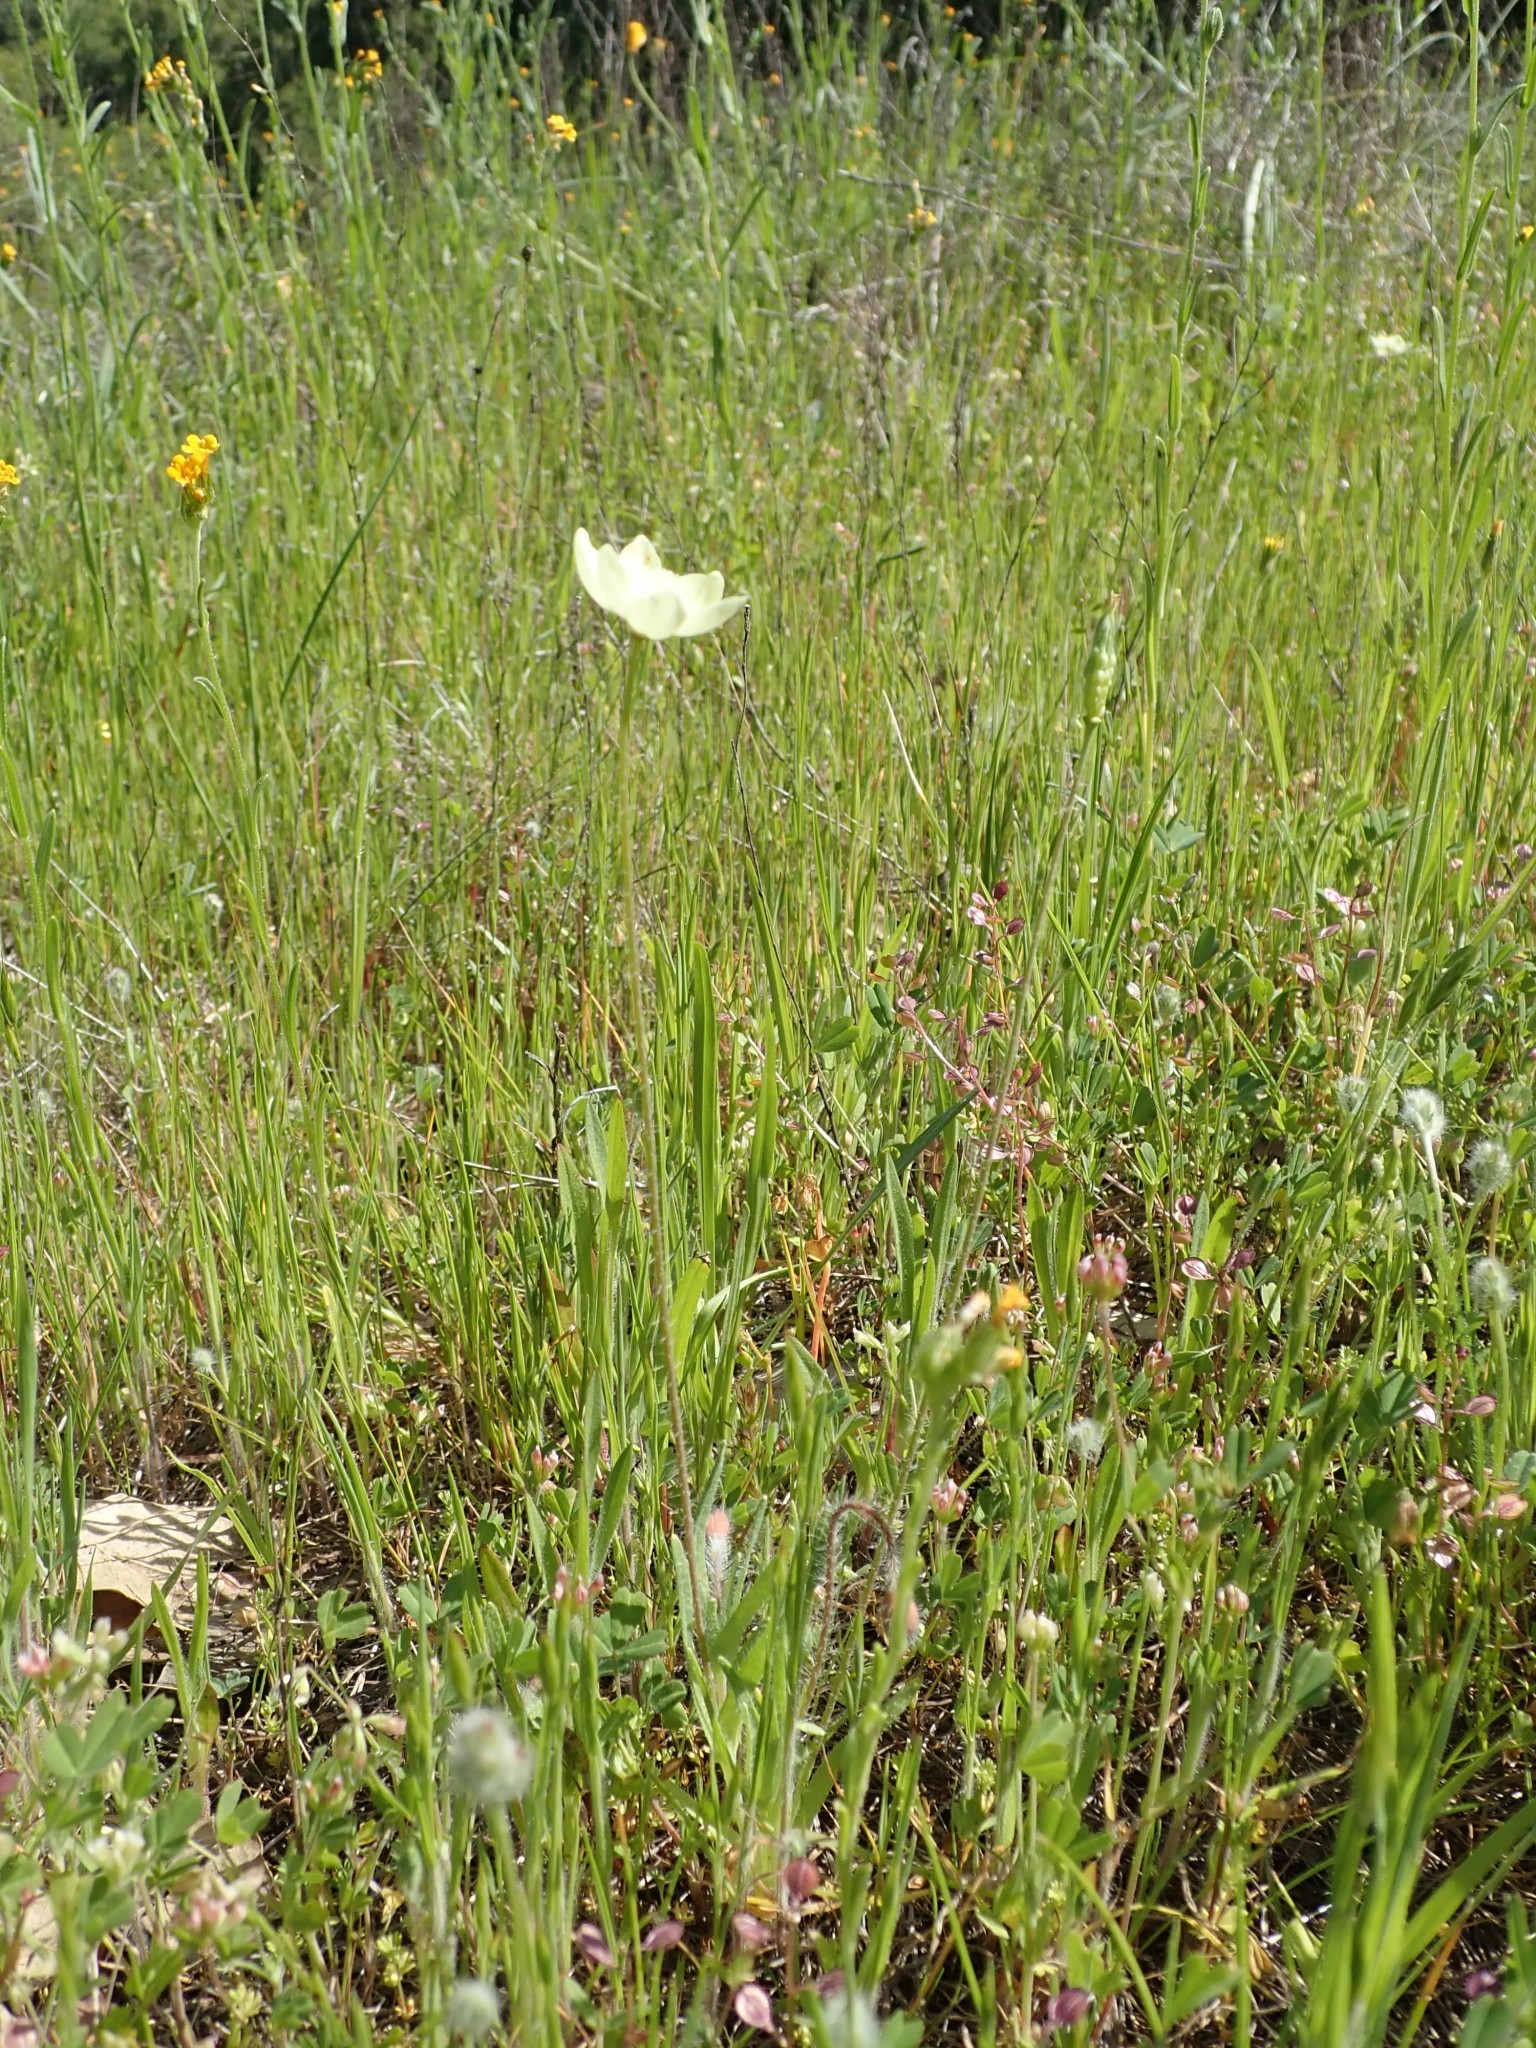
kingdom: Plantae
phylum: Tracheophyta
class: Magnoliopsida
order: Ranunculales
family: Papaveraceae
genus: Platystemon
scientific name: Platystemon californicus
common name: Cream-cups
